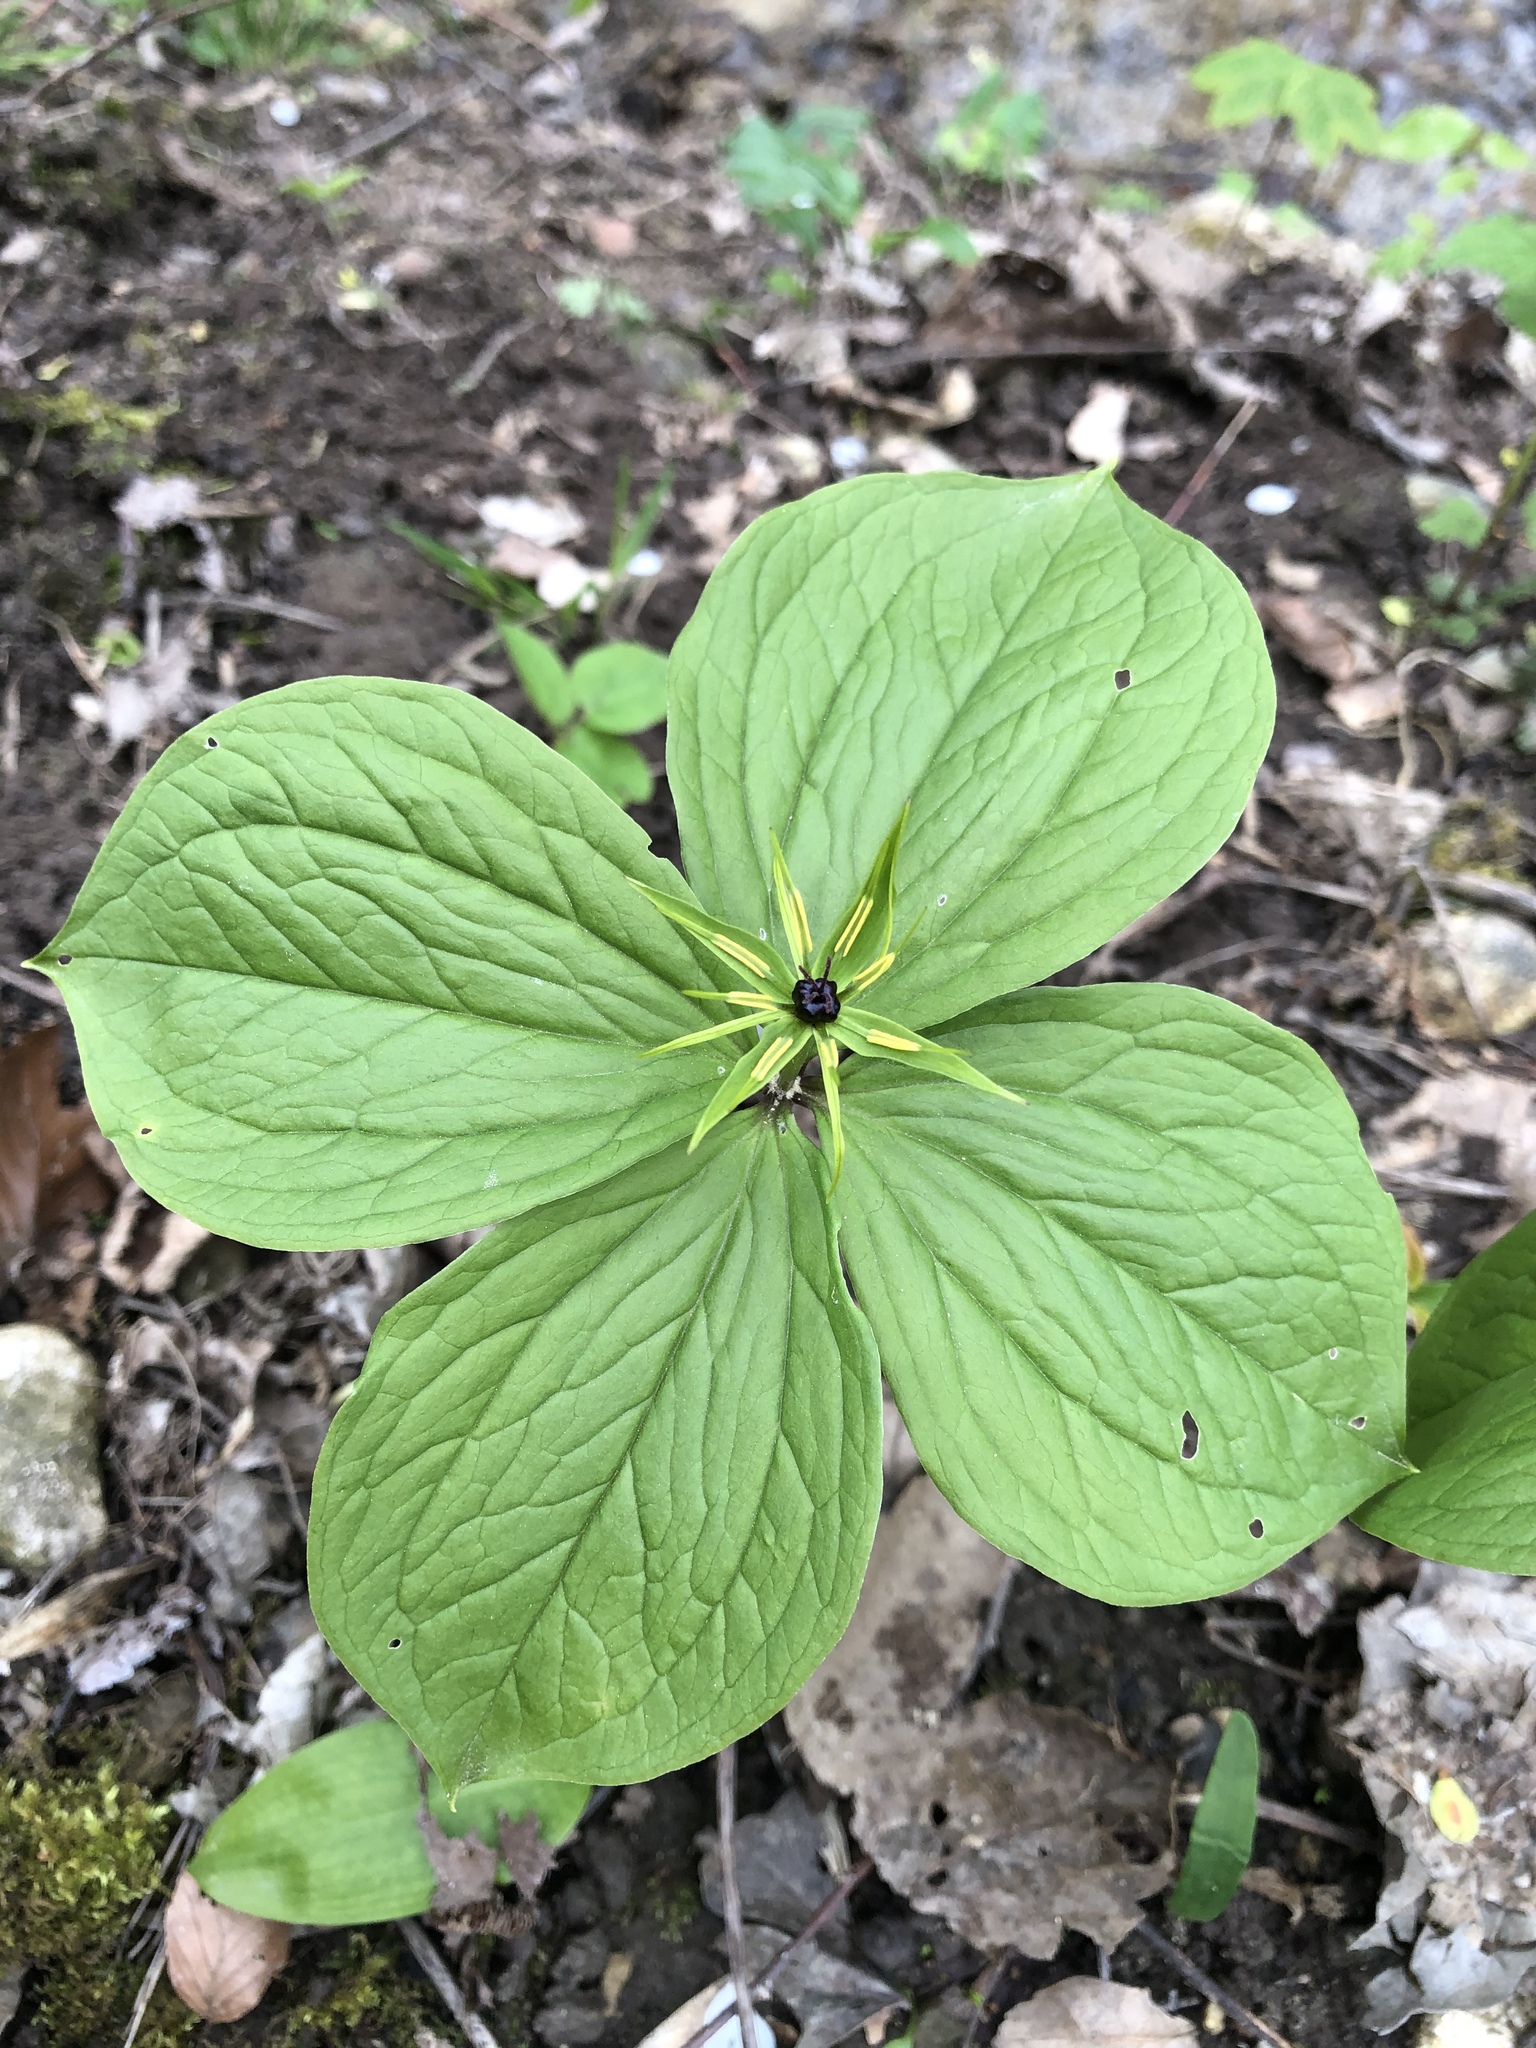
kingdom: Plantae
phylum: Tracheophyta
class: Liliopsida
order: Liliales
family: Melanthiaceae
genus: Paris
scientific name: Paris quadrifolia
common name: Herb-paris
